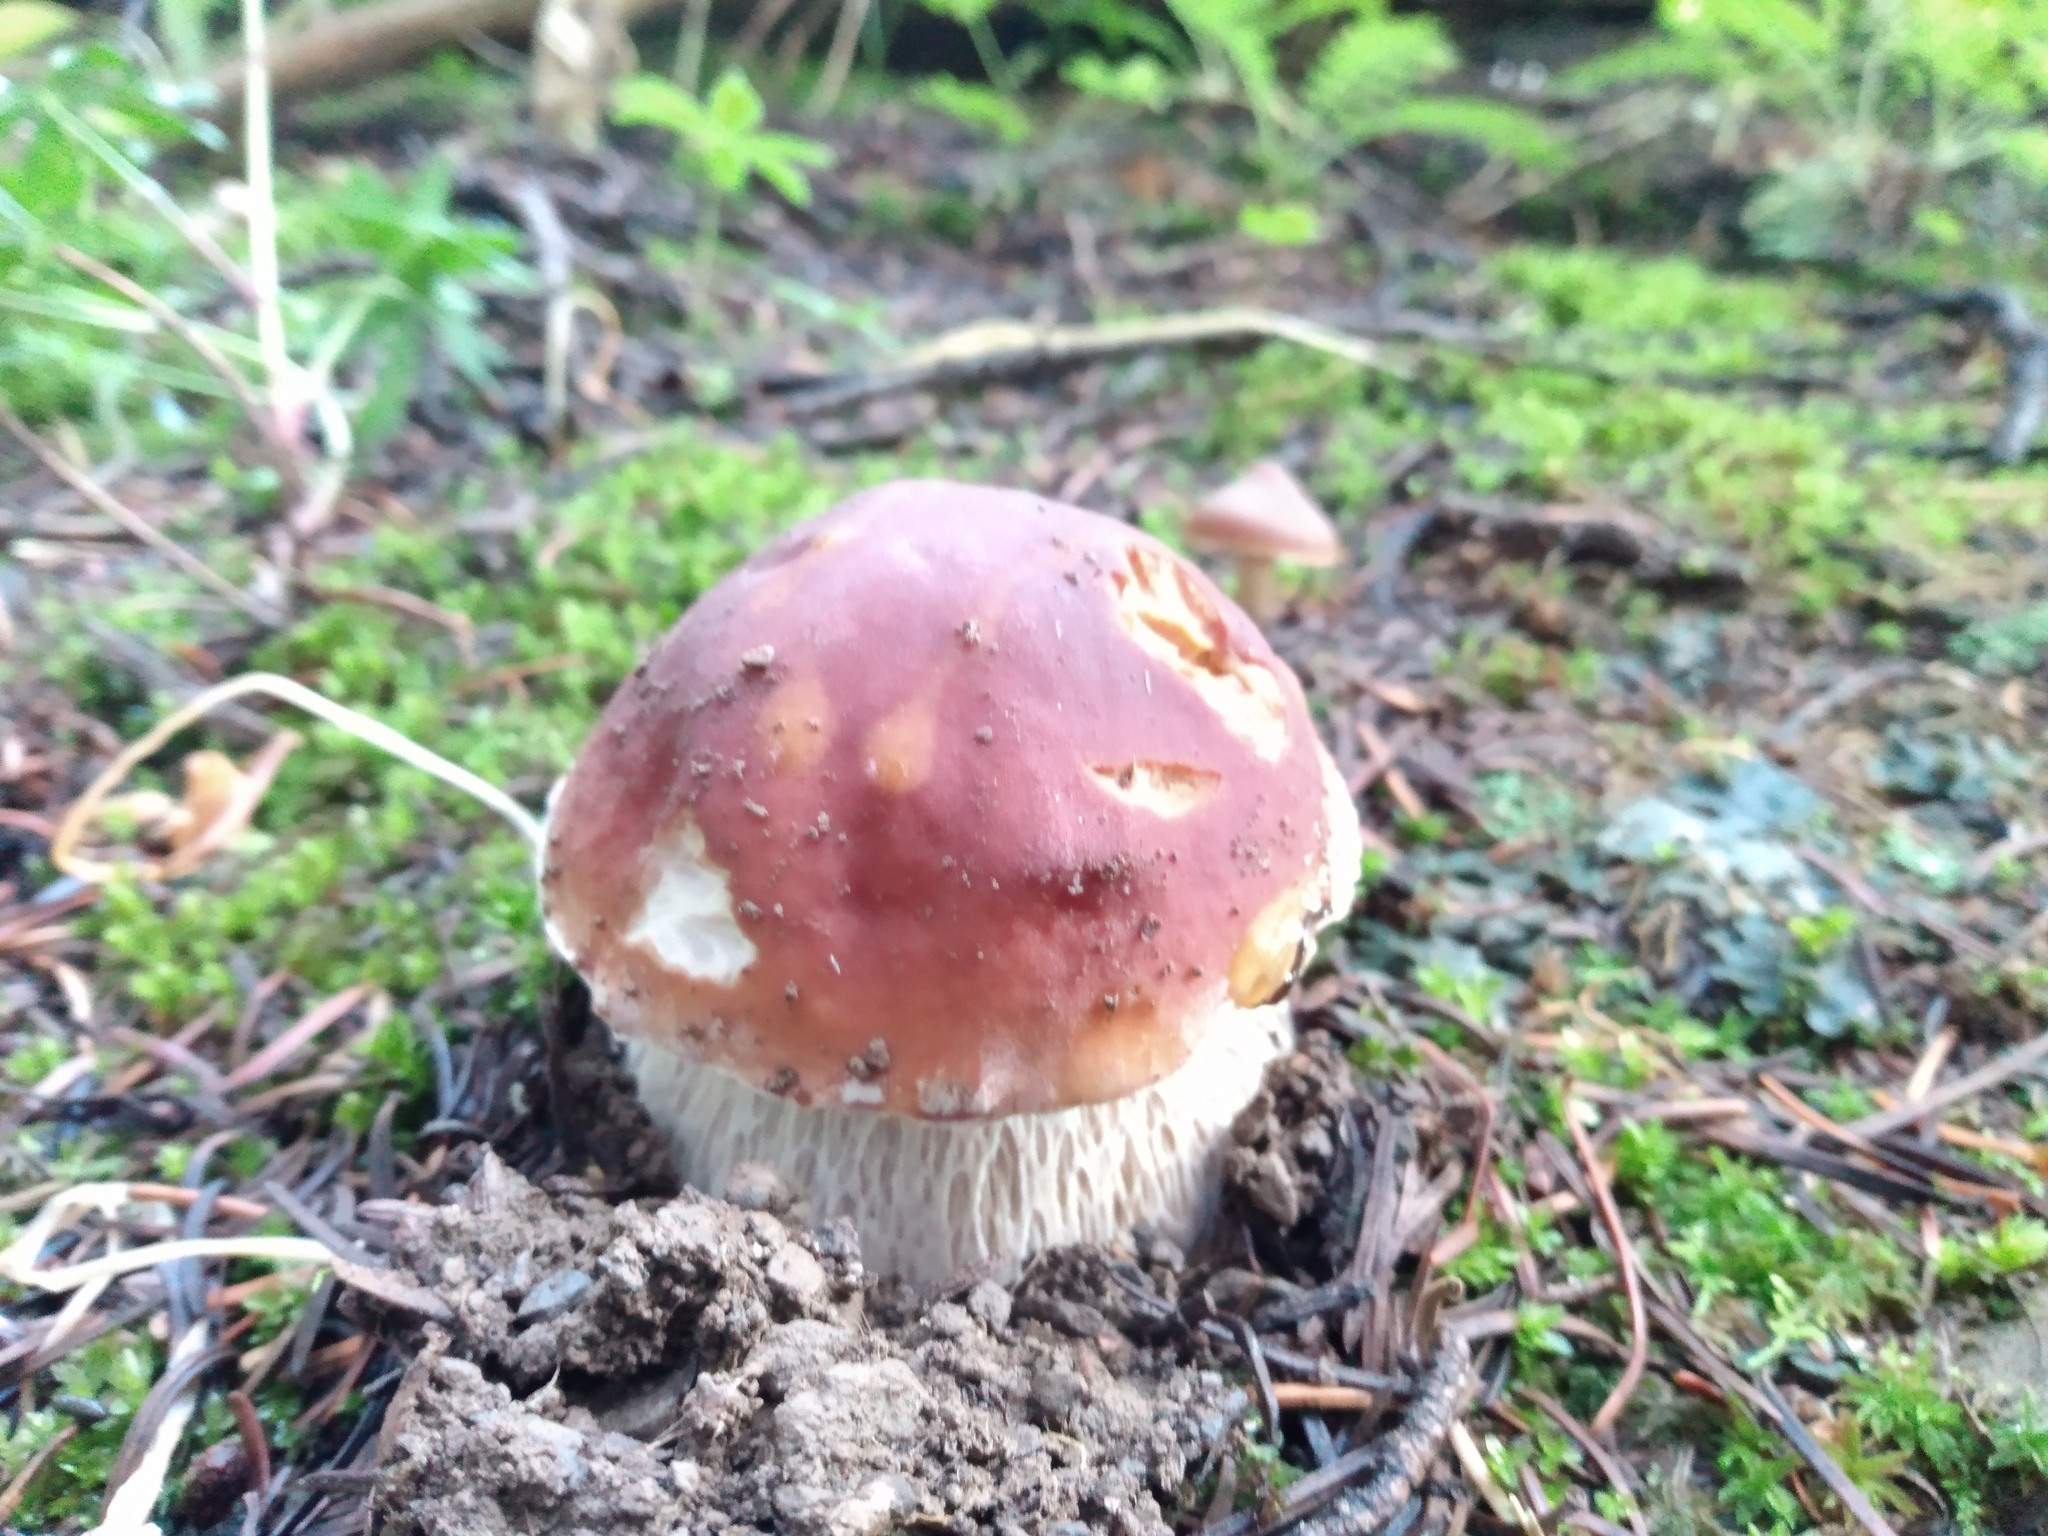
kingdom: Fungi
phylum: Basidiomycota
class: Agaricomycetes
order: Boletales
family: Boletaceae
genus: Boletus
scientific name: Boletus rubriceps
